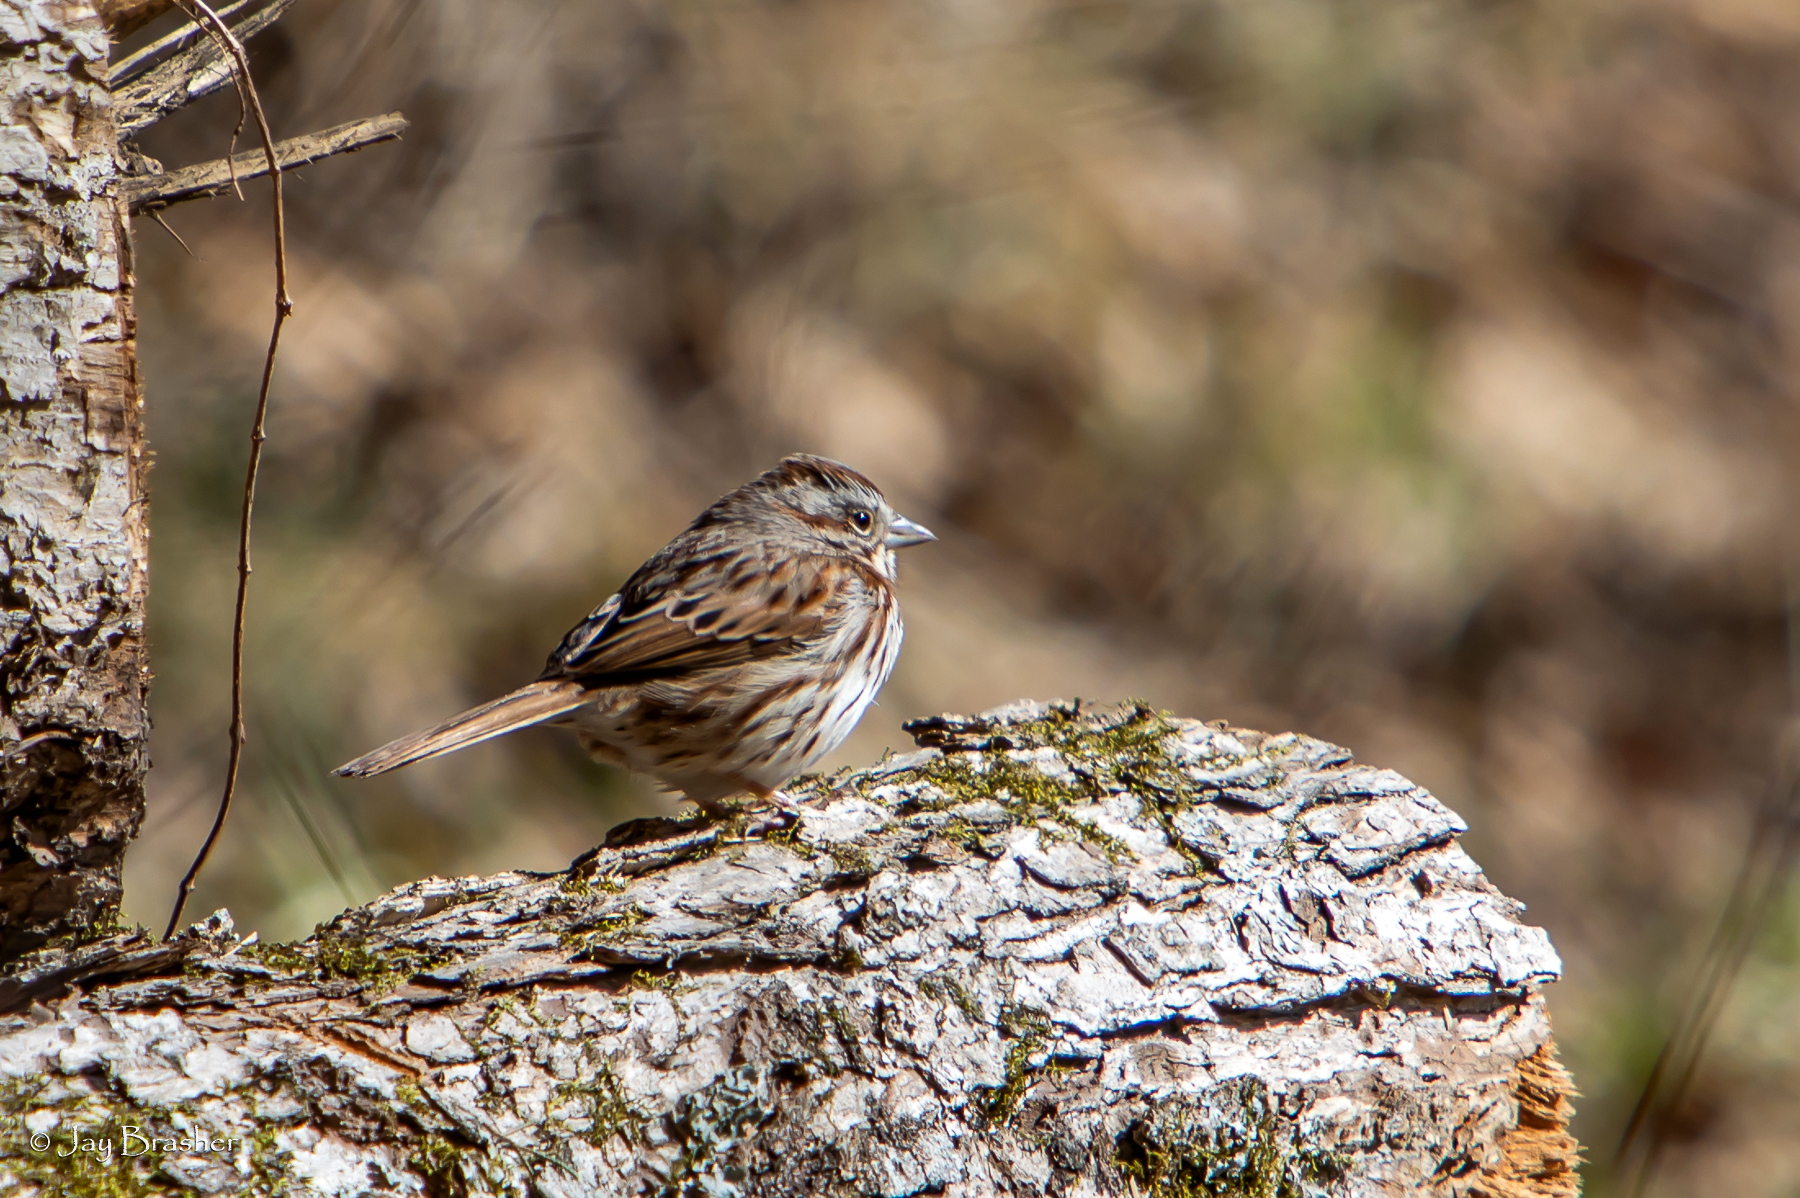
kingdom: Animalia
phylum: Chordata
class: Aves
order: Passeriformes
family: Passerellidae
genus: Melospiza
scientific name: Melospiza melodia
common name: Song sparrow
